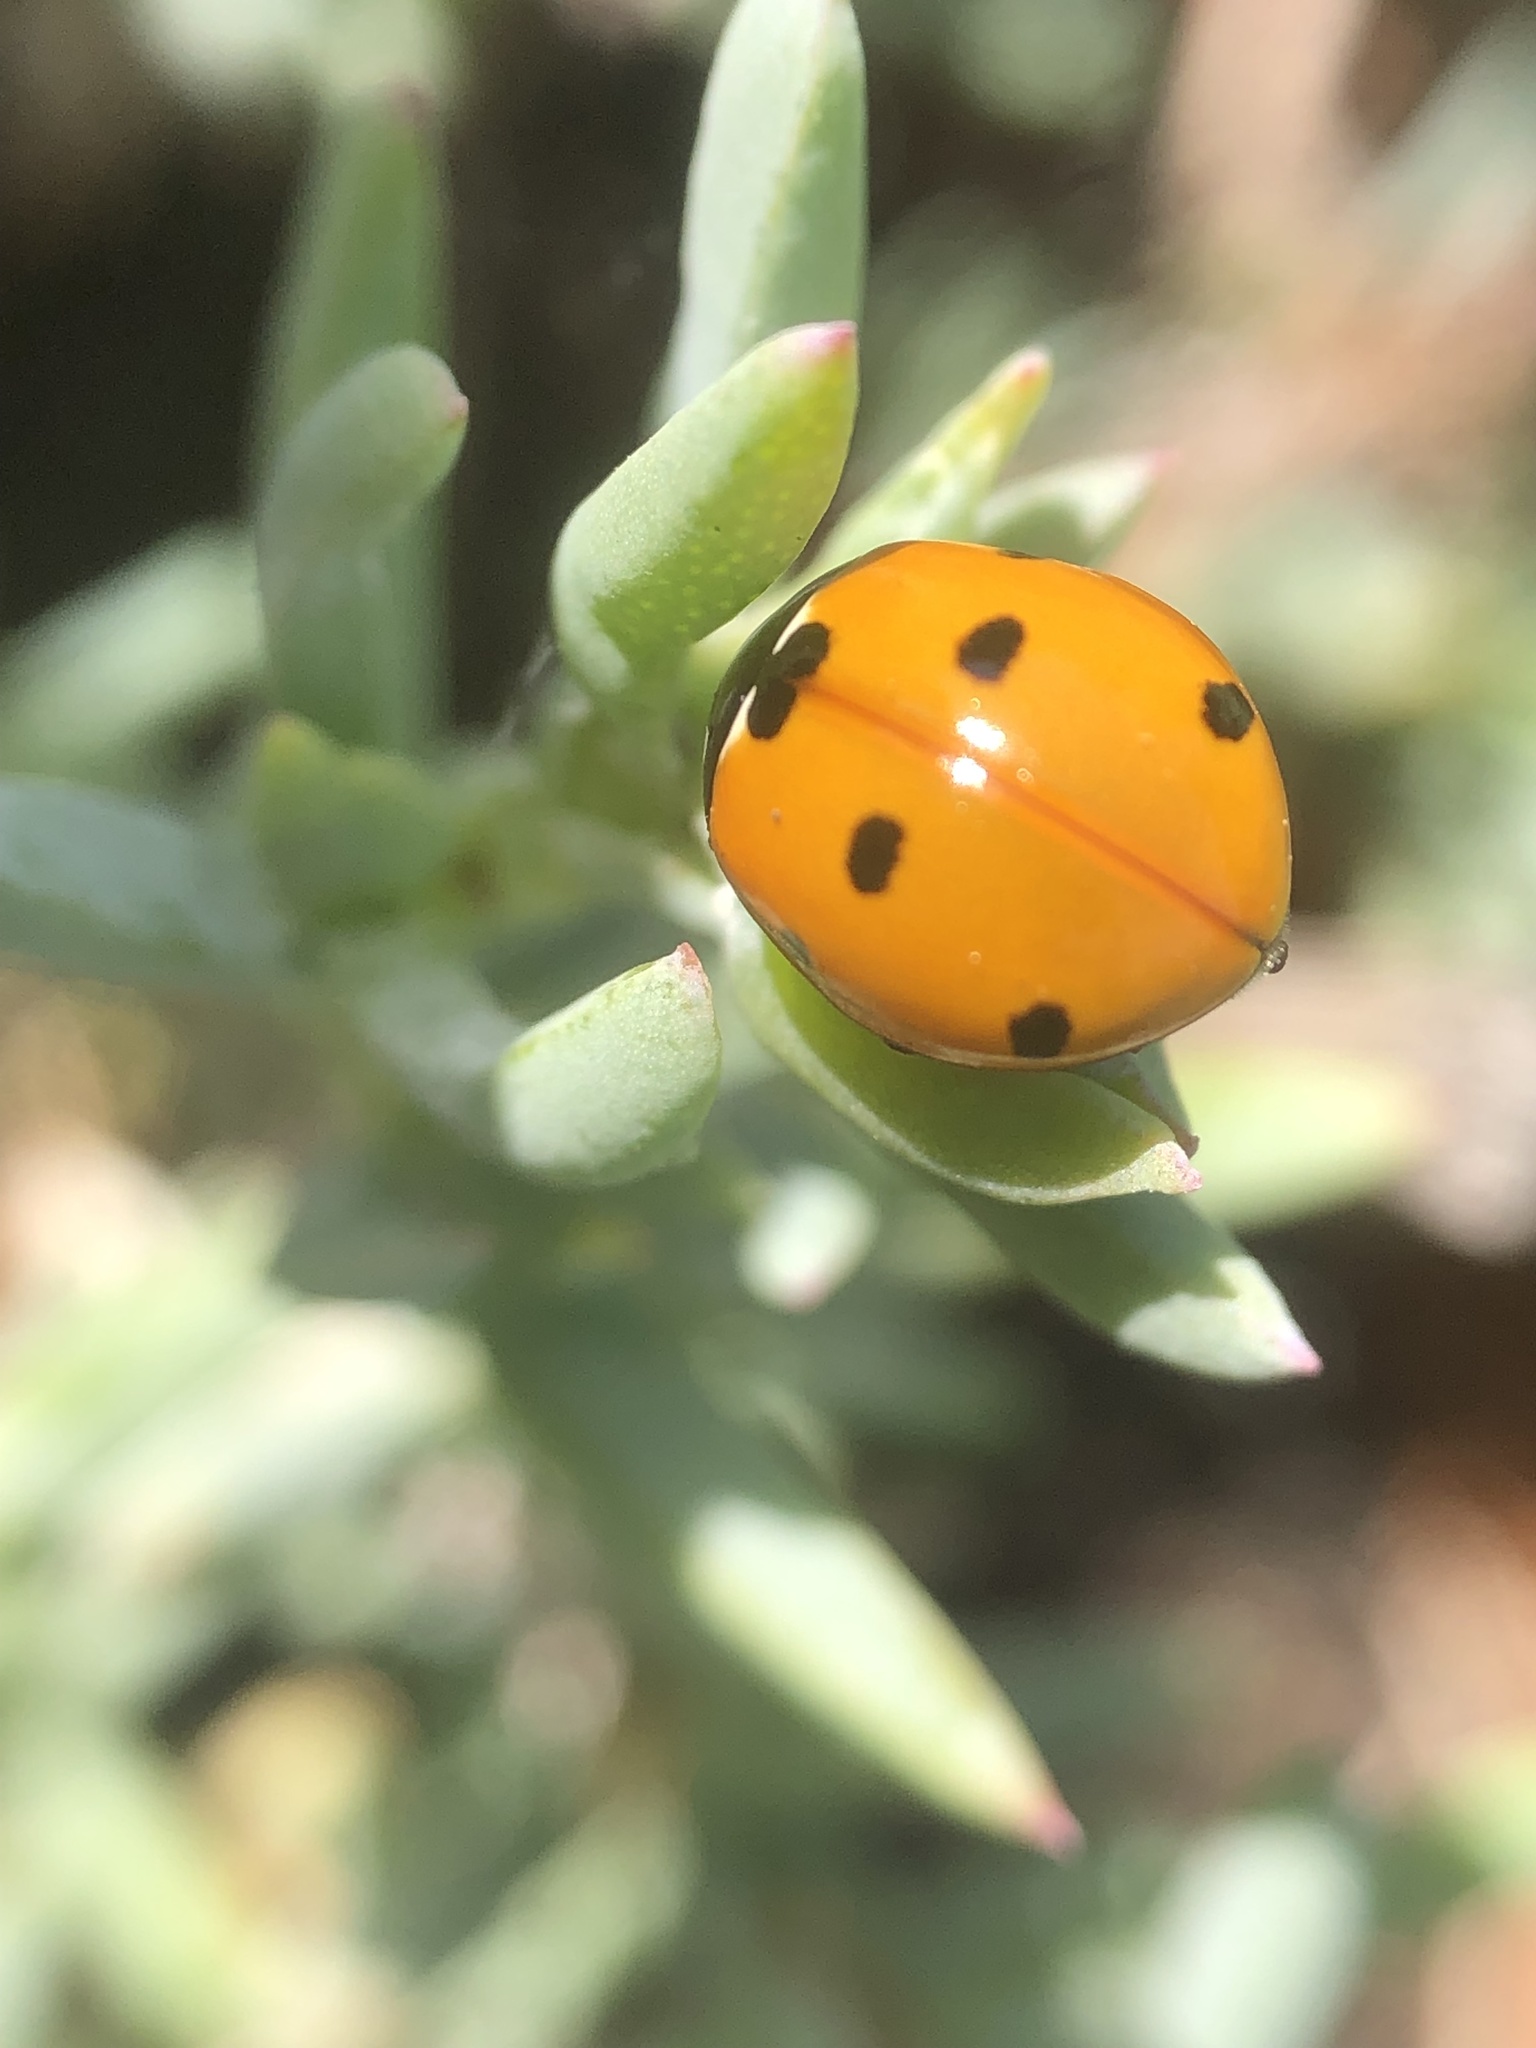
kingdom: Animalia
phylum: Arthropoda
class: Insecta
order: Coleoptera
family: Coccinellidae
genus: Coccinella
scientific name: Coccinella septempunctata
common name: Sevenspotted lady beetle
